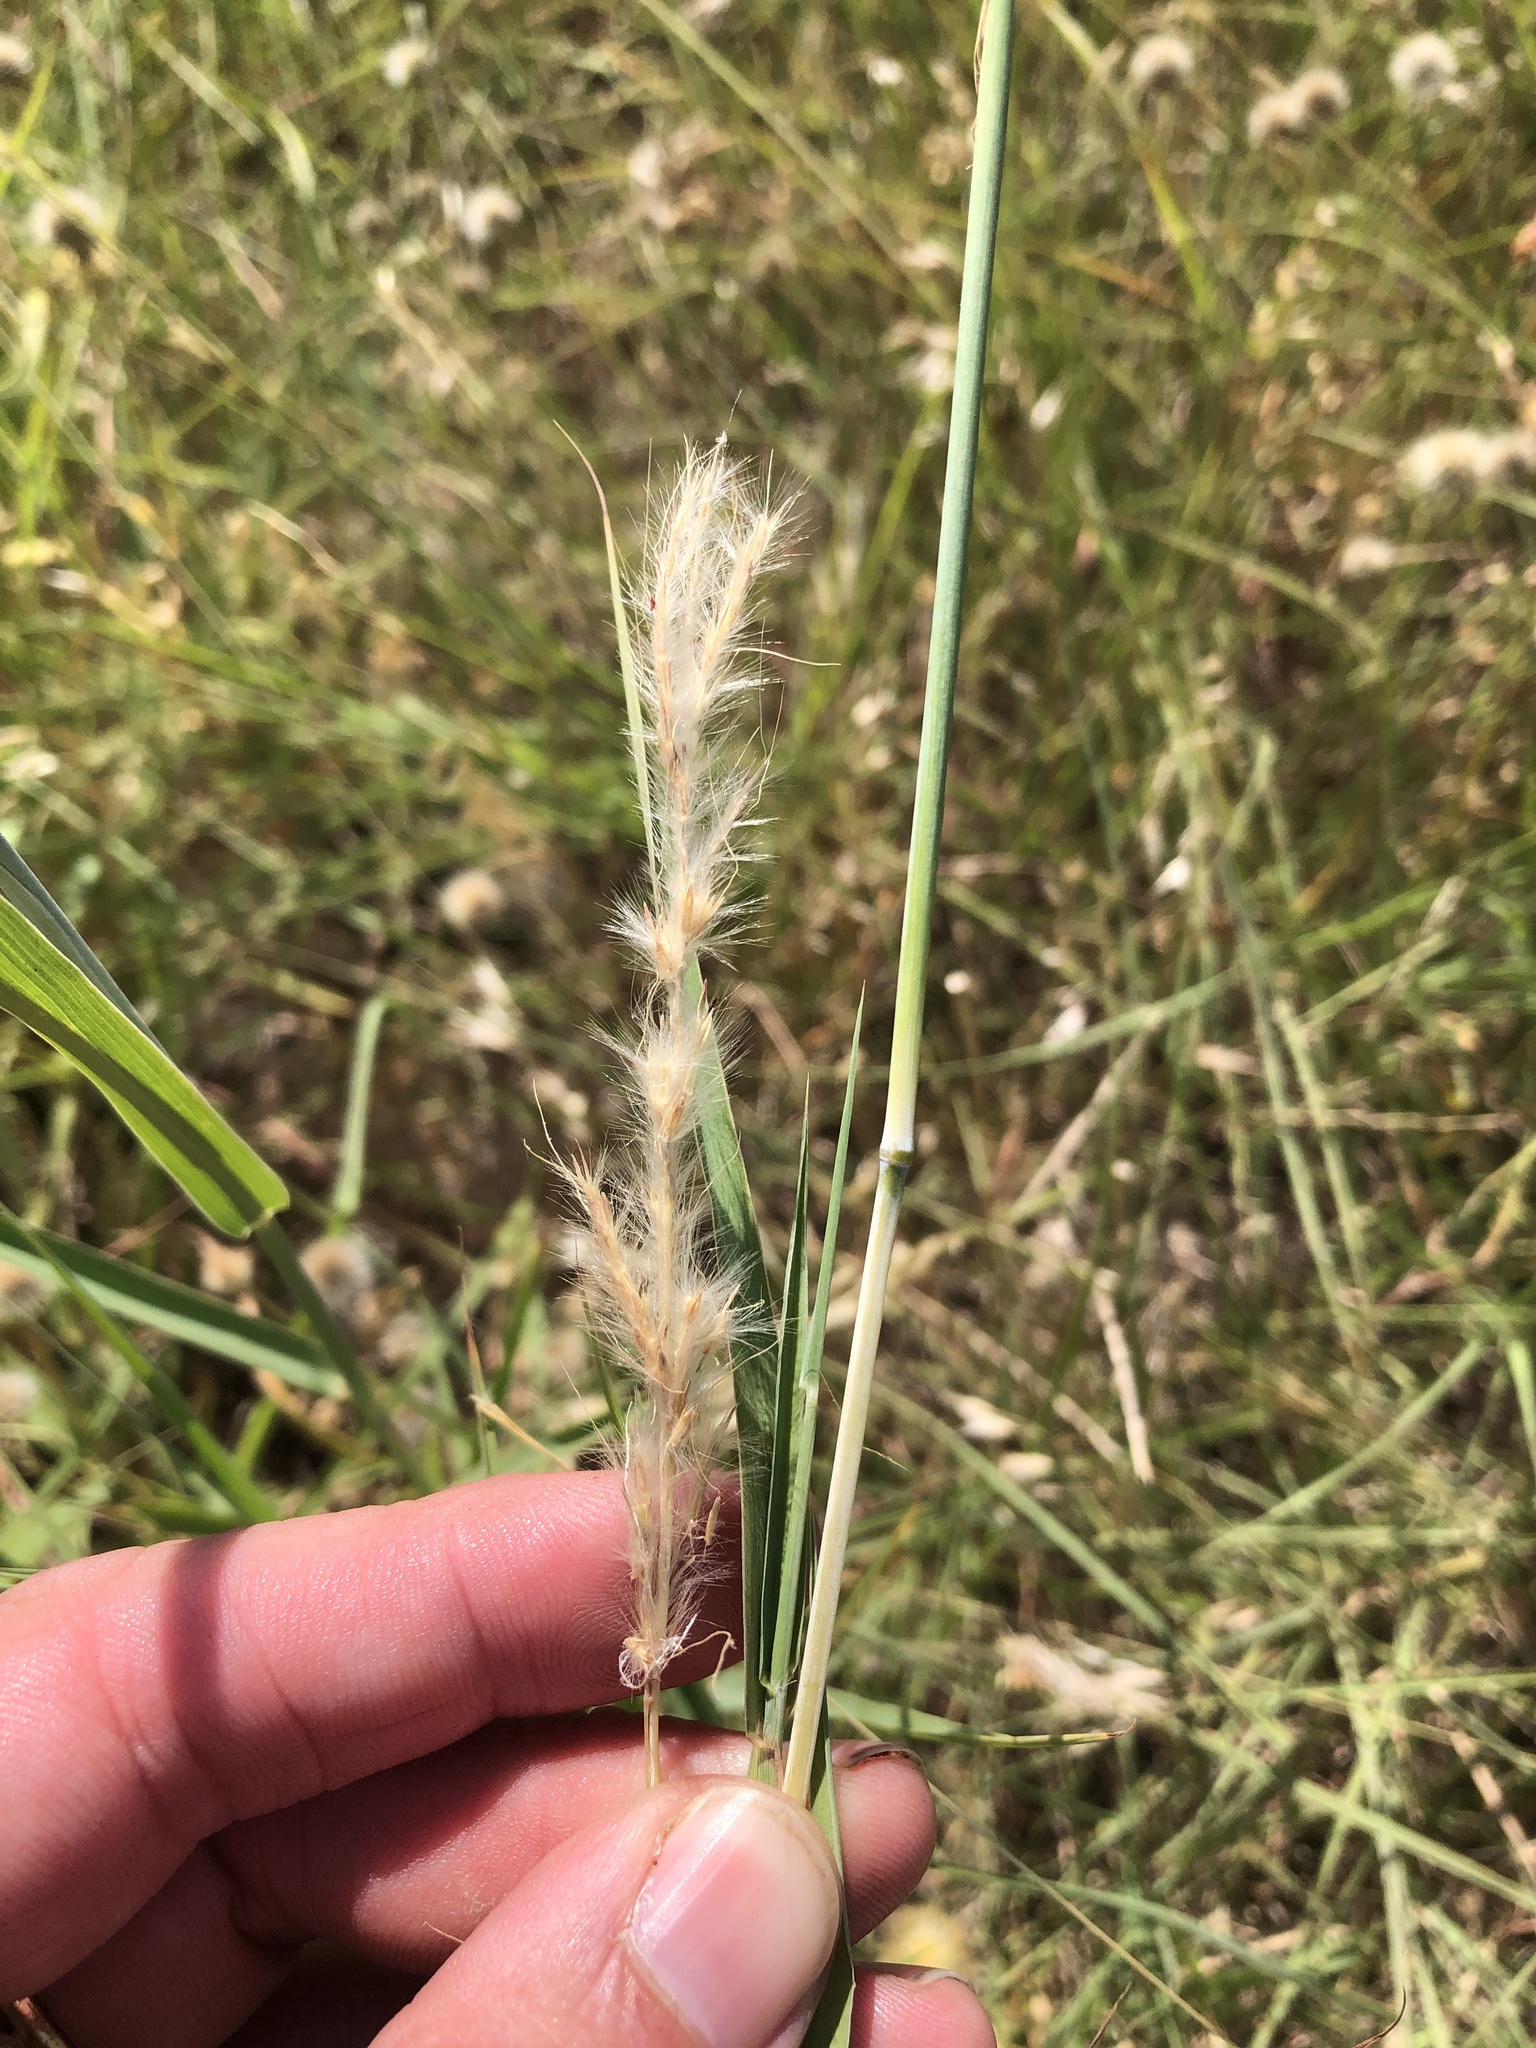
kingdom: Plantae
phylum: Tracheophyta
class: Liliopsida
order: Poales
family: Poaceae
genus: Bothriochloa
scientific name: Bothriochloa torreyana
